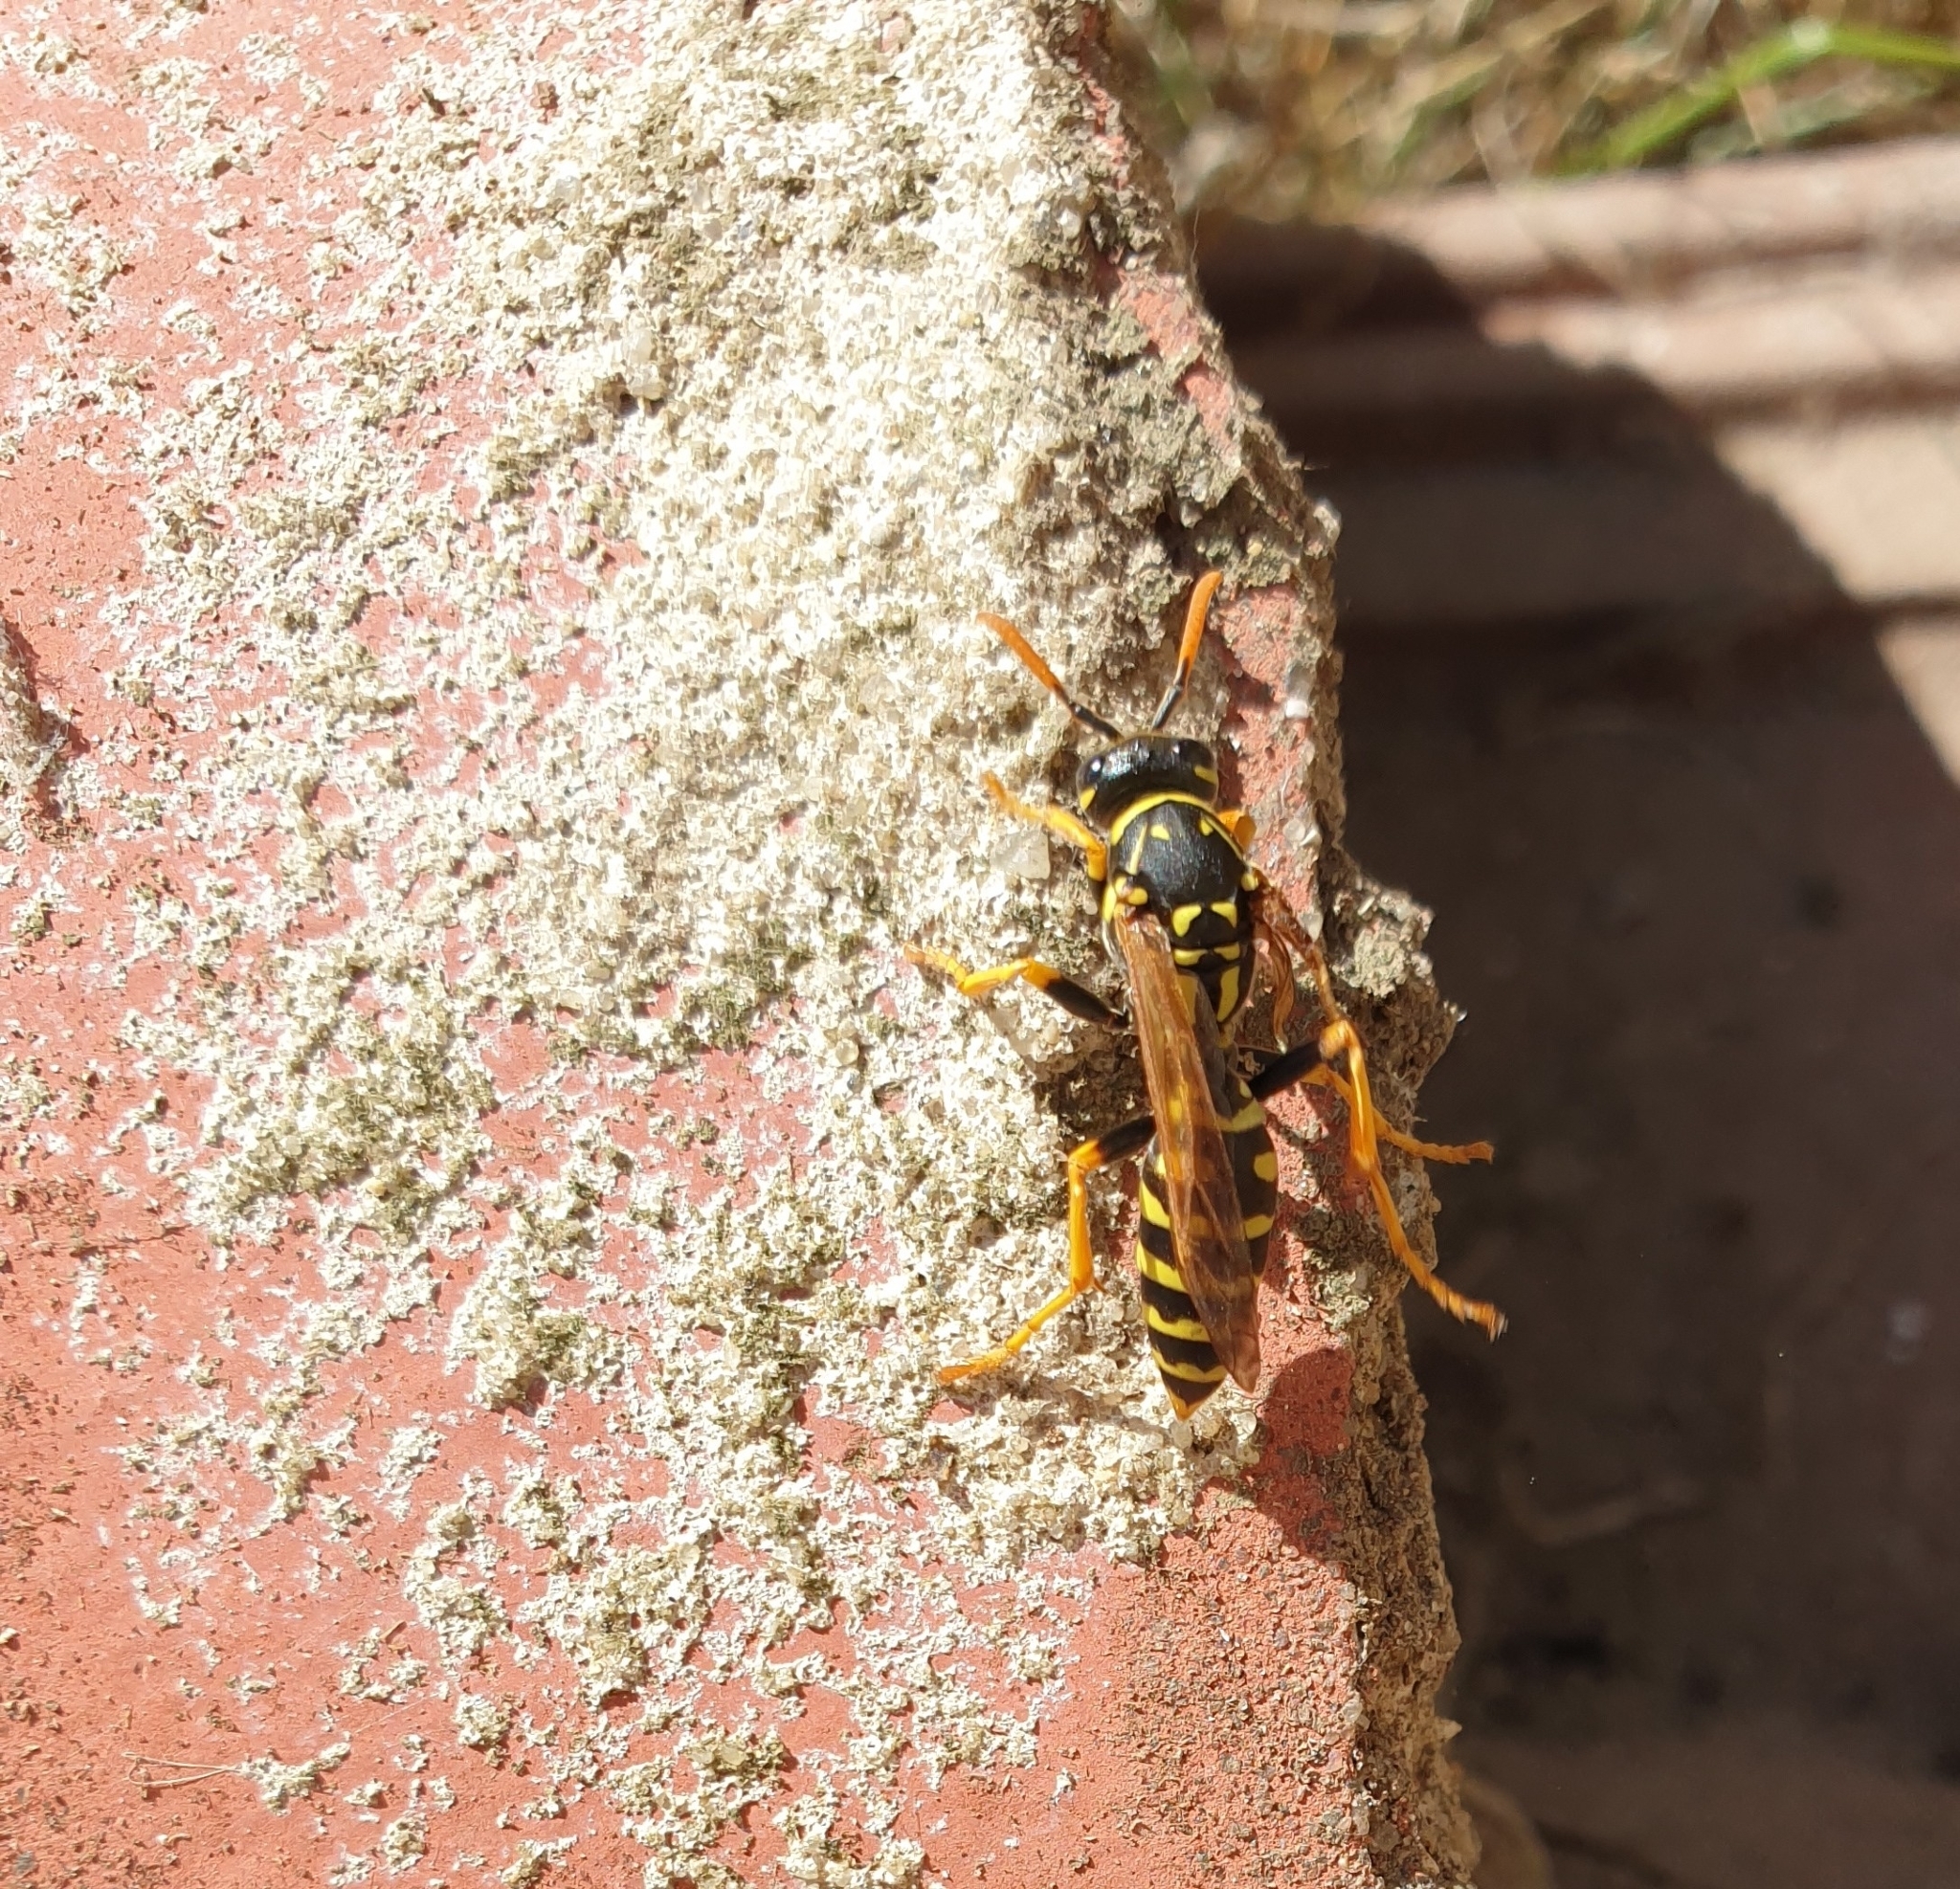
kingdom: Animalia
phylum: Arthropoda
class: Insecta
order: Hymenoptera
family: Eumenidae
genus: Polistes
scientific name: Polistes dominula
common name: Paper wasp
